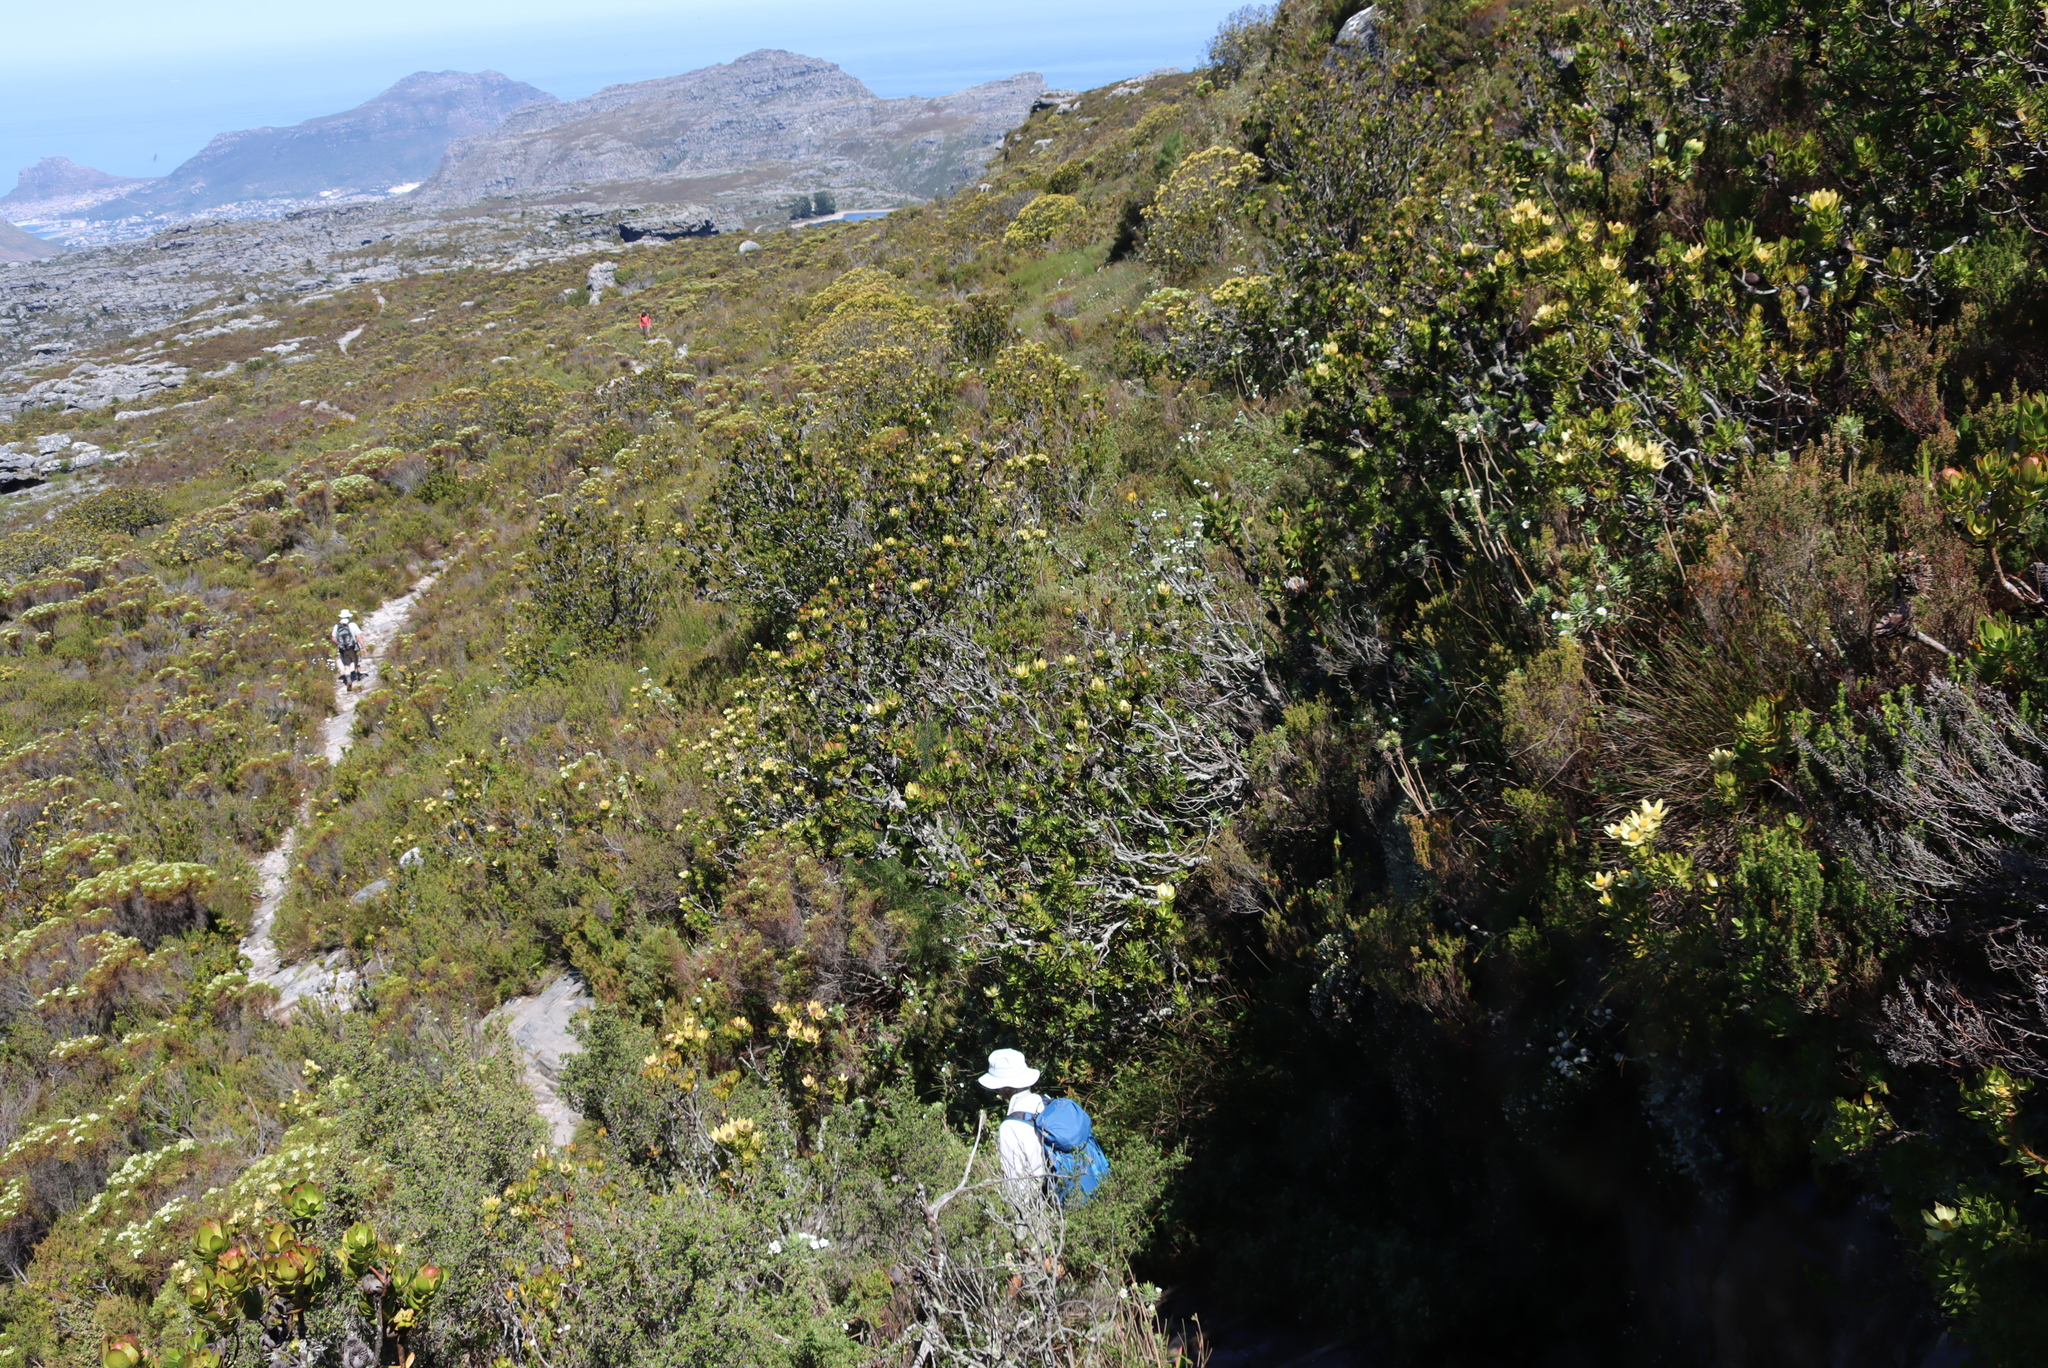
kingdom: Plantae
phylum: Tracheophyta
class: Magnoliopsida
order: Proteales
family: Proteaceae
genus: Leucadendron
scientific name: Leucadendron strobilinum
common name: Mountain rose
